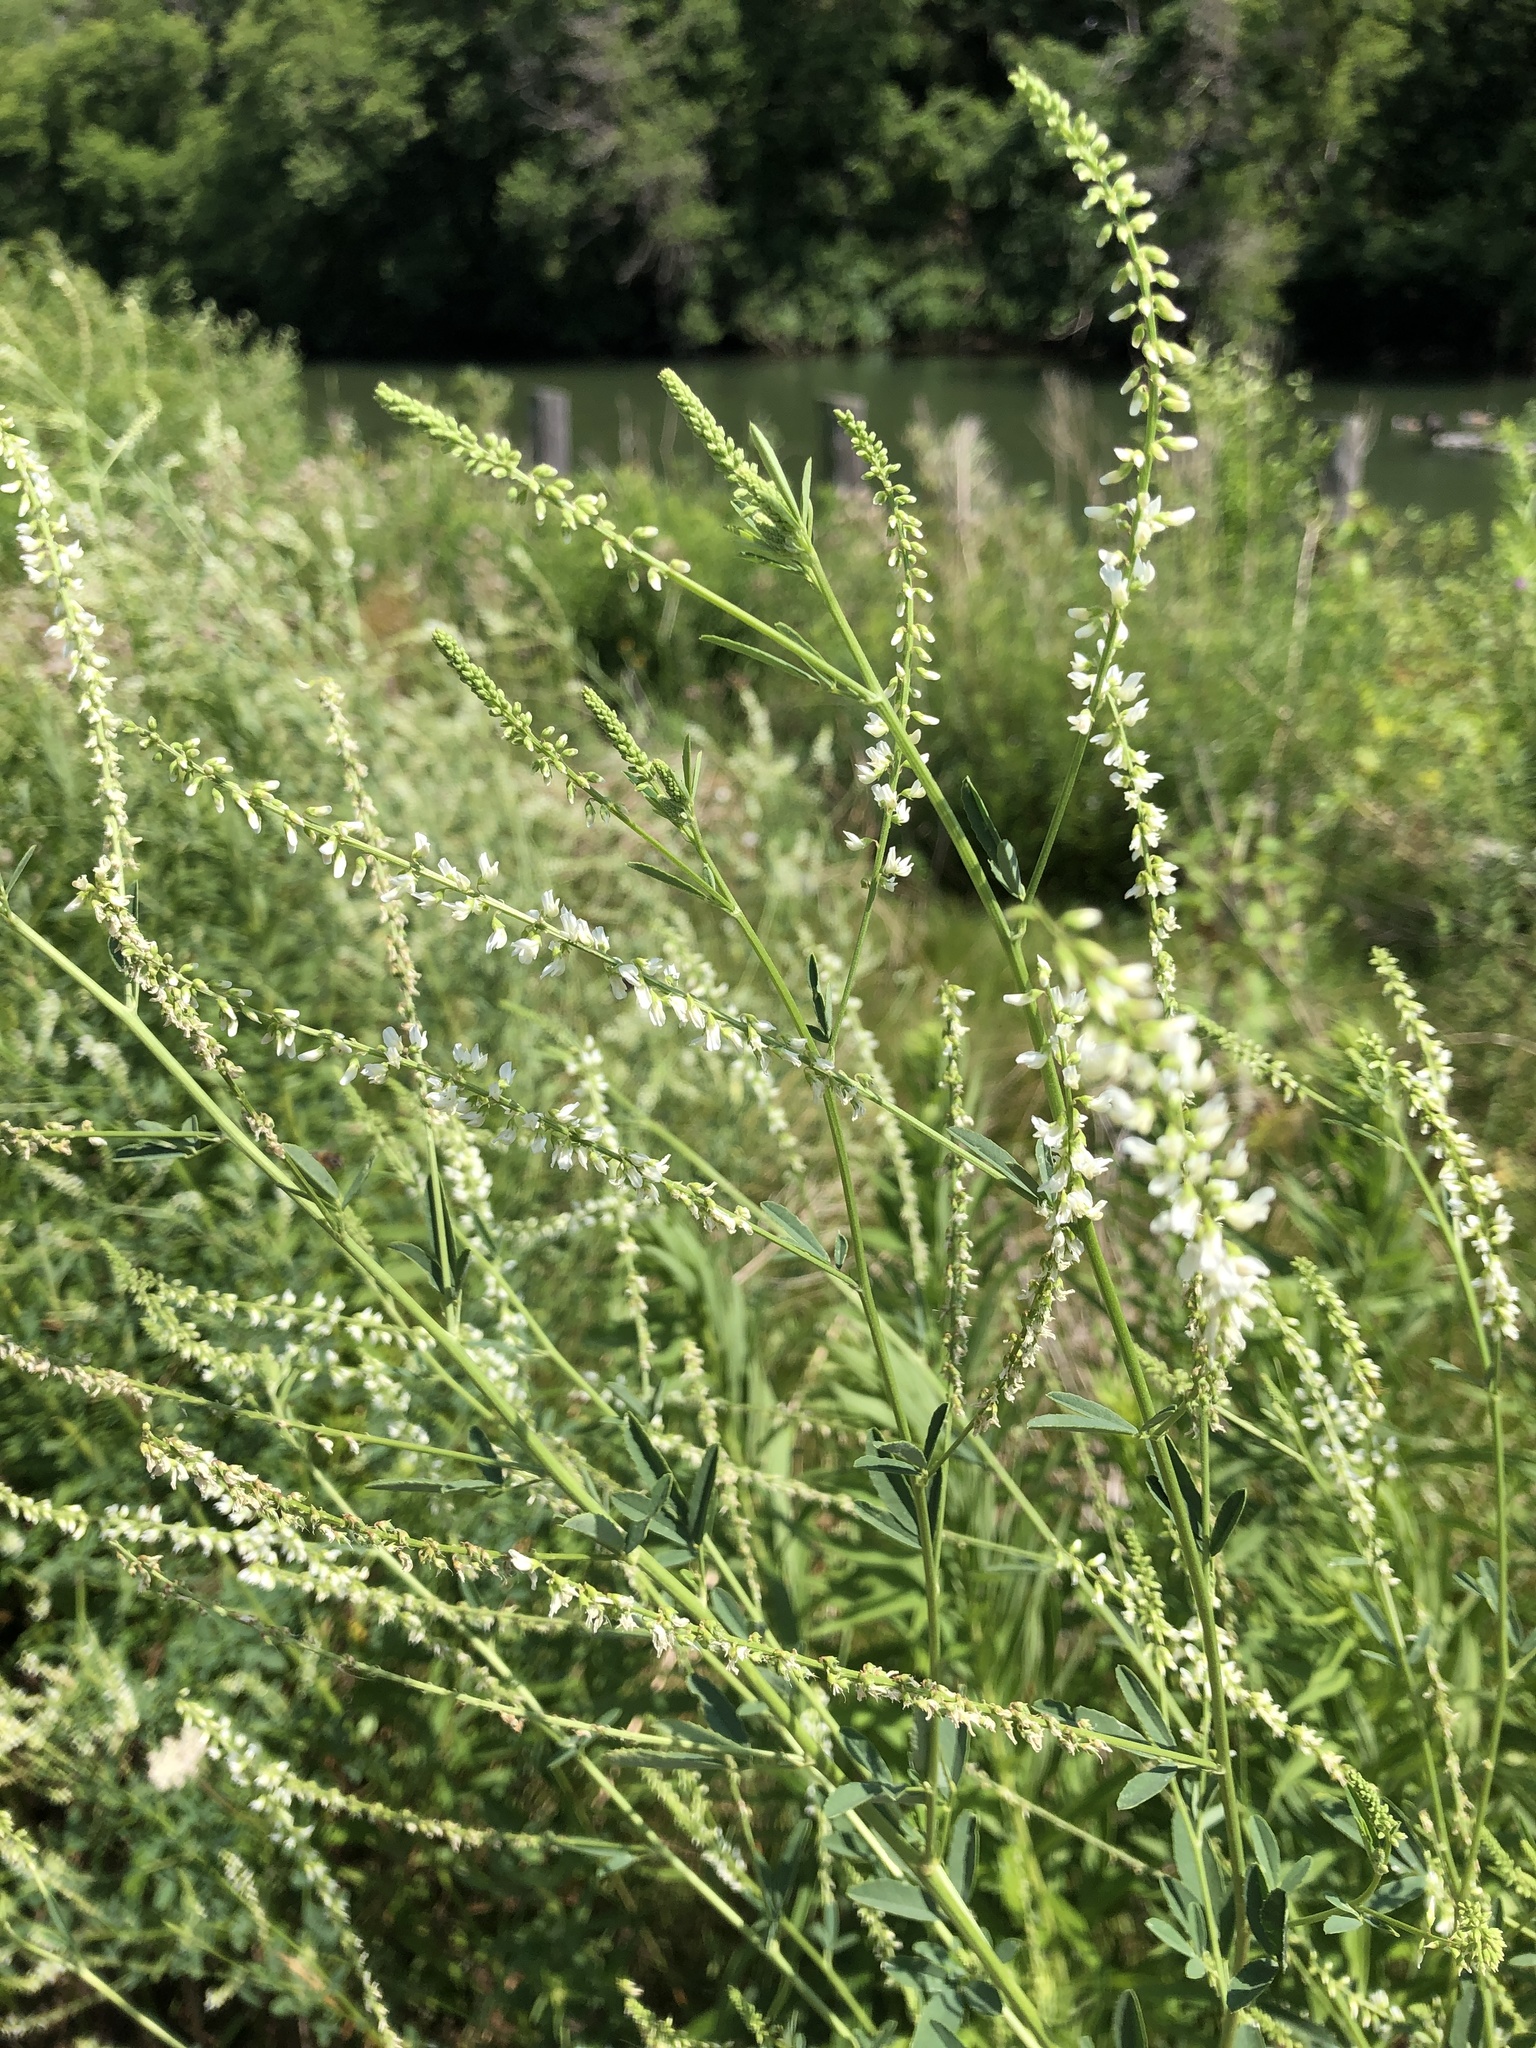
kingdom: Plantae
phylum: Tracheophyta
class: Magnoliopsida
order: Fabales
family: Fabaceae
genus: Melilotus
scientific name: Melilotus albus
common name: White melilot
